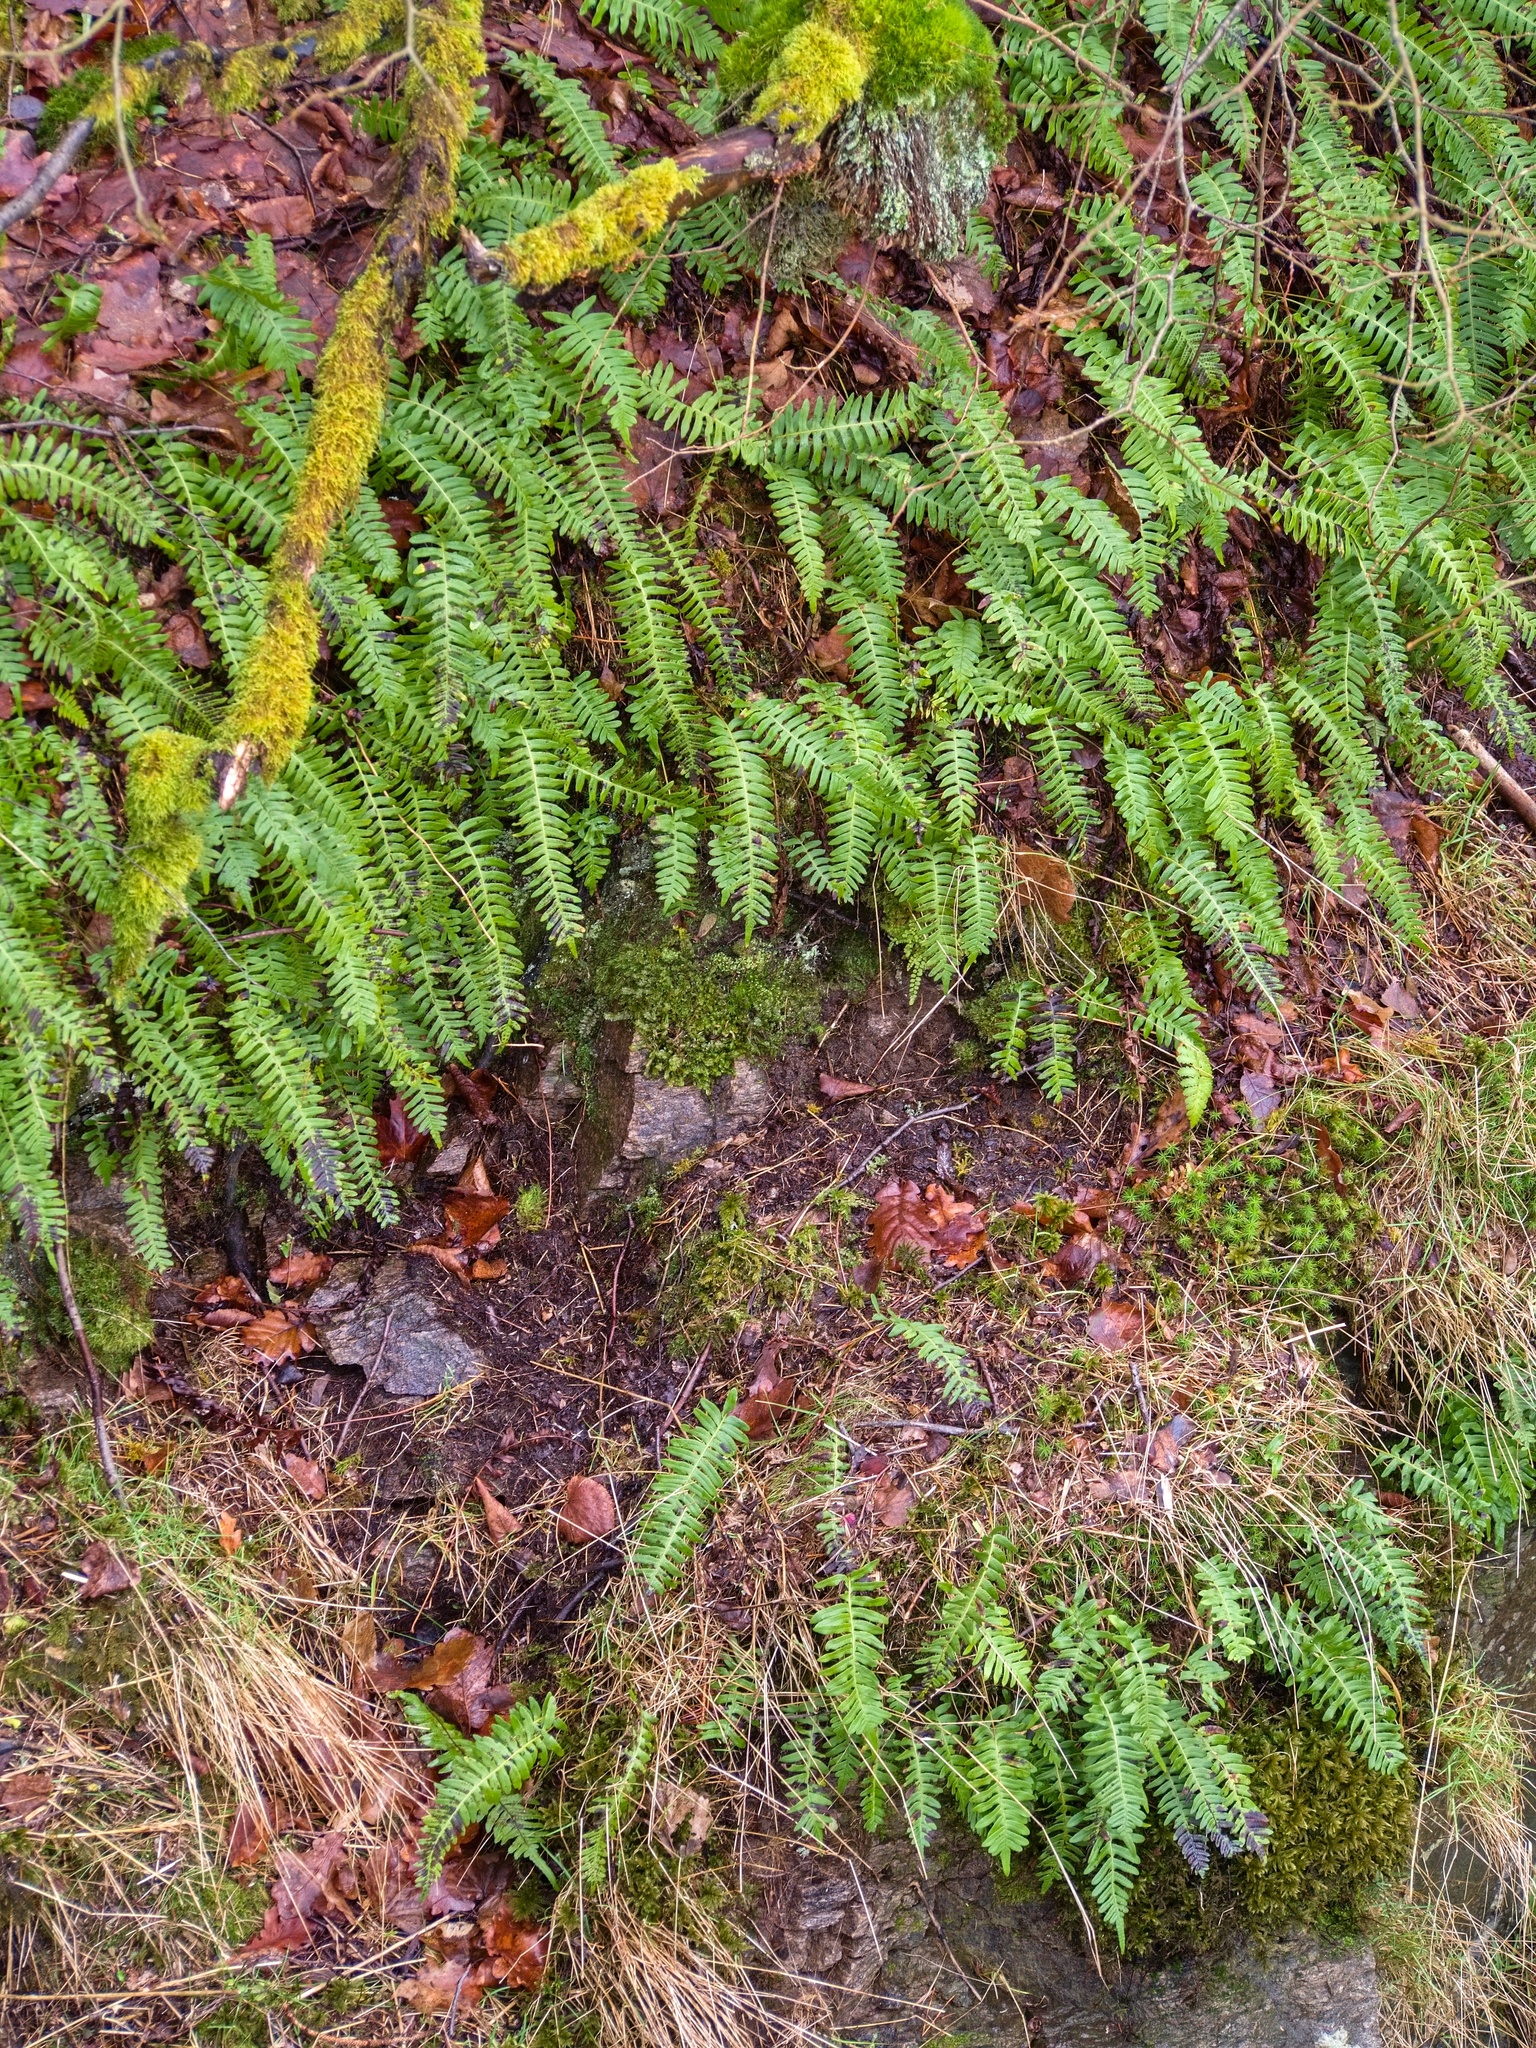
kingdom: Plantae
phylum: Tracheophyta
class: Polypodiopsida
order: Polypodiales
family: Polypodiaceae
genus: Polypodium
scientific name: Polypodium vulgare
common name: Common polypody
